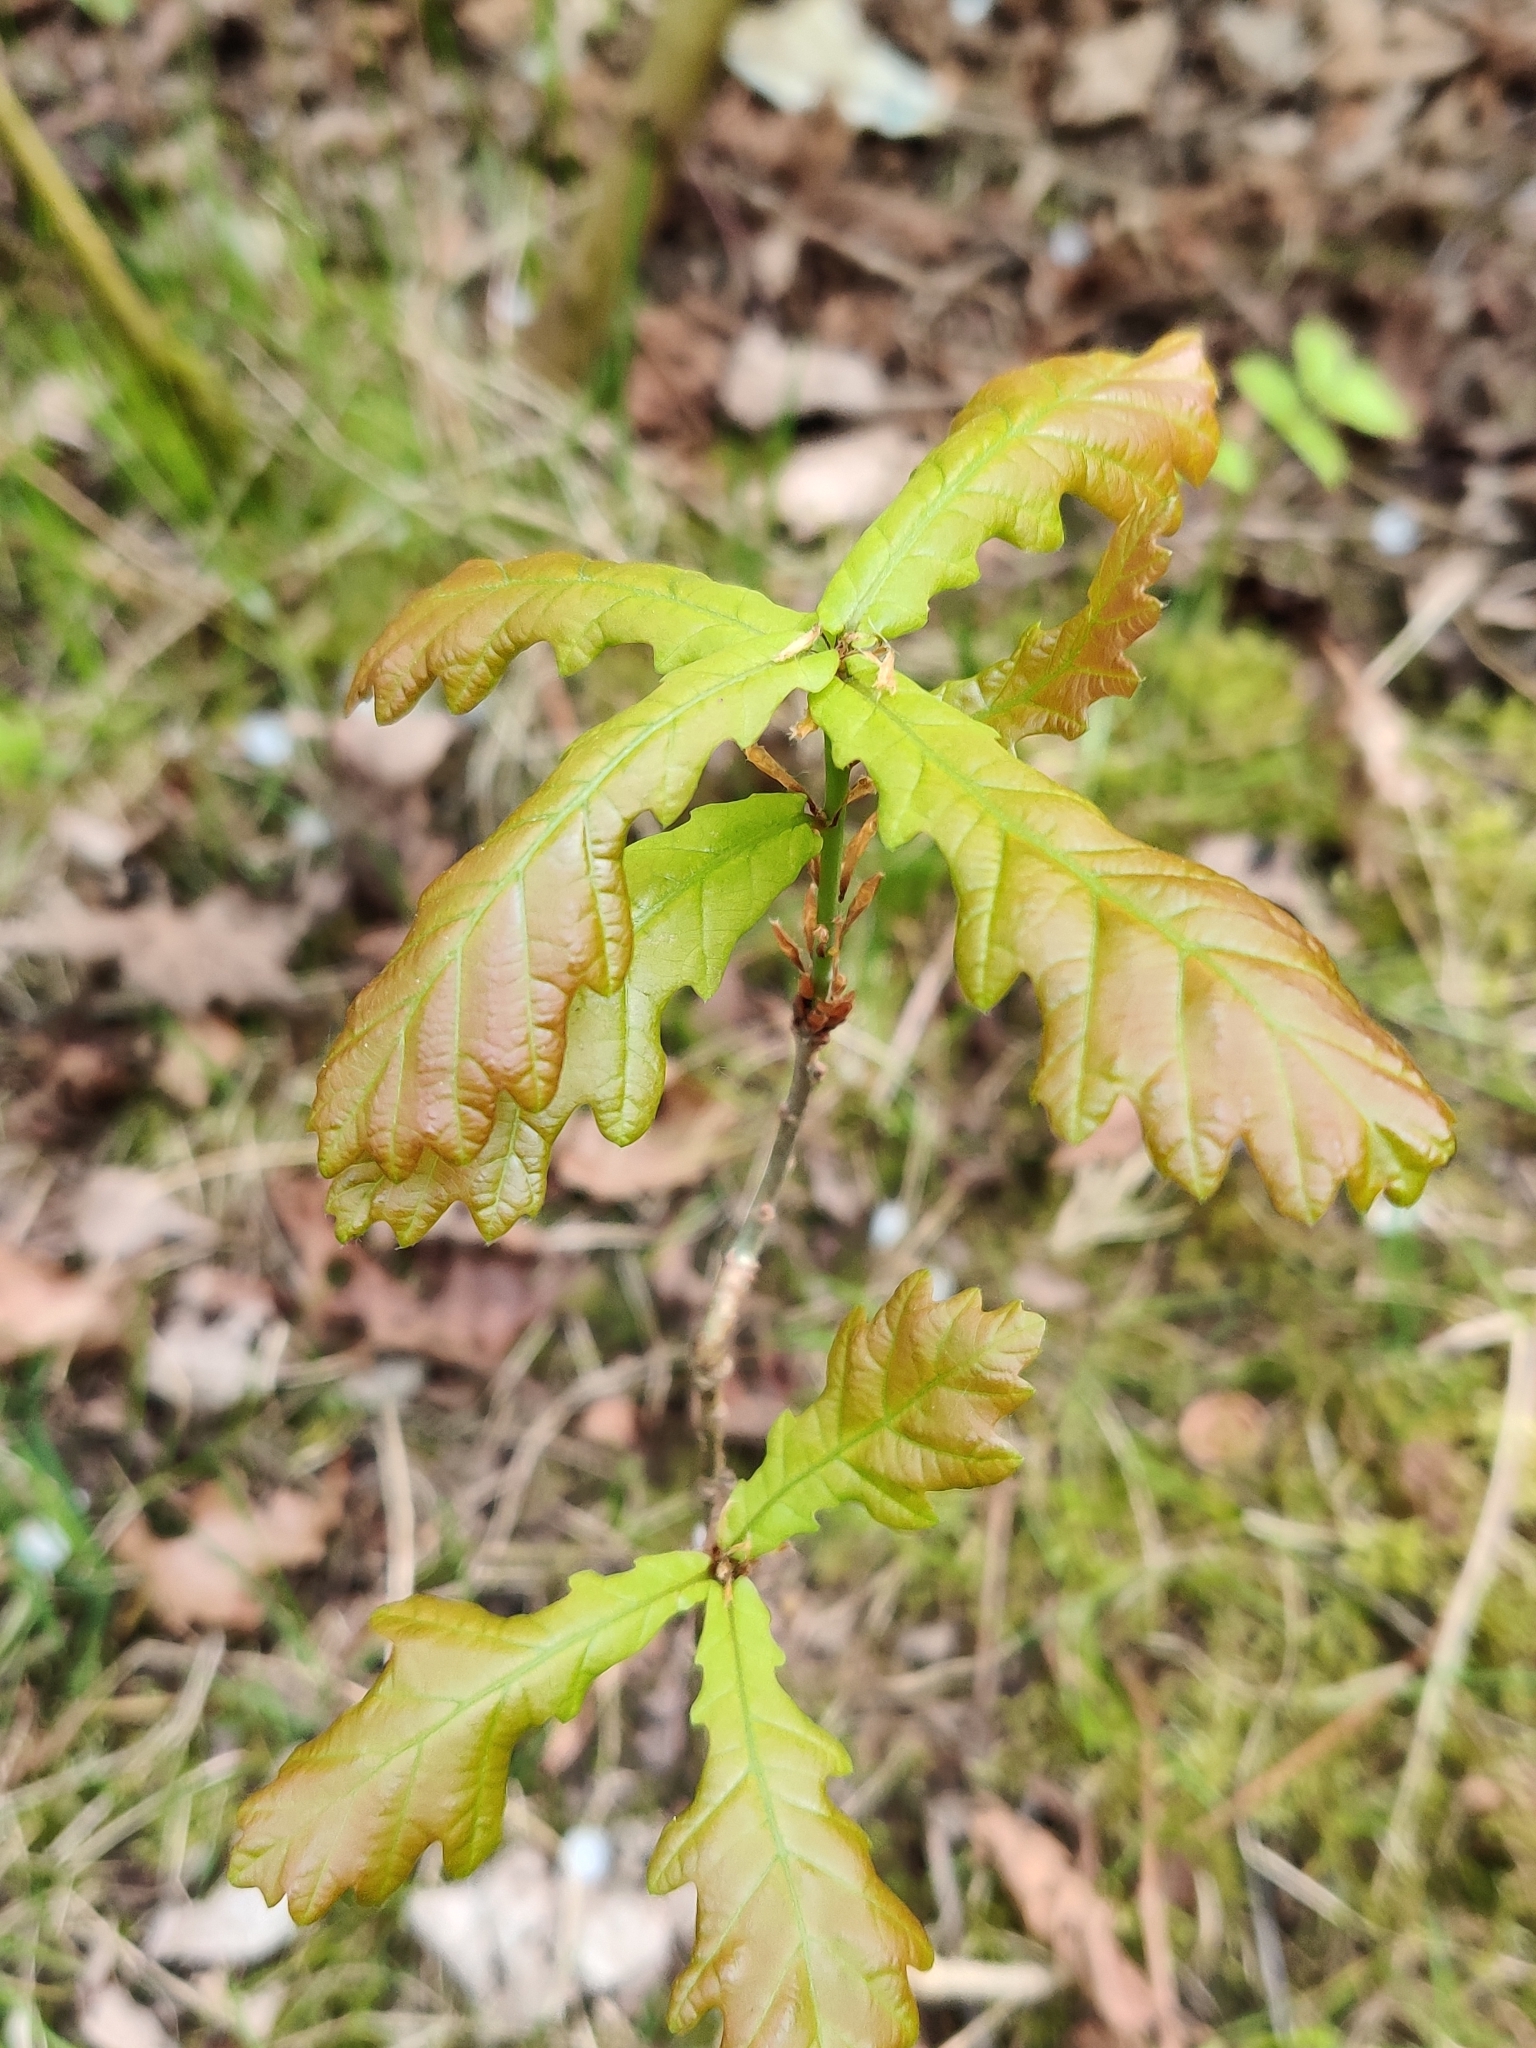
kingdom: Plantae
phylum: Tracheophyta
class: Magnoliopsida
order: Fagales
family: Fagaceae
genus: Quercus
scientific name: Quercus robur
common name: Pedunculate oak
